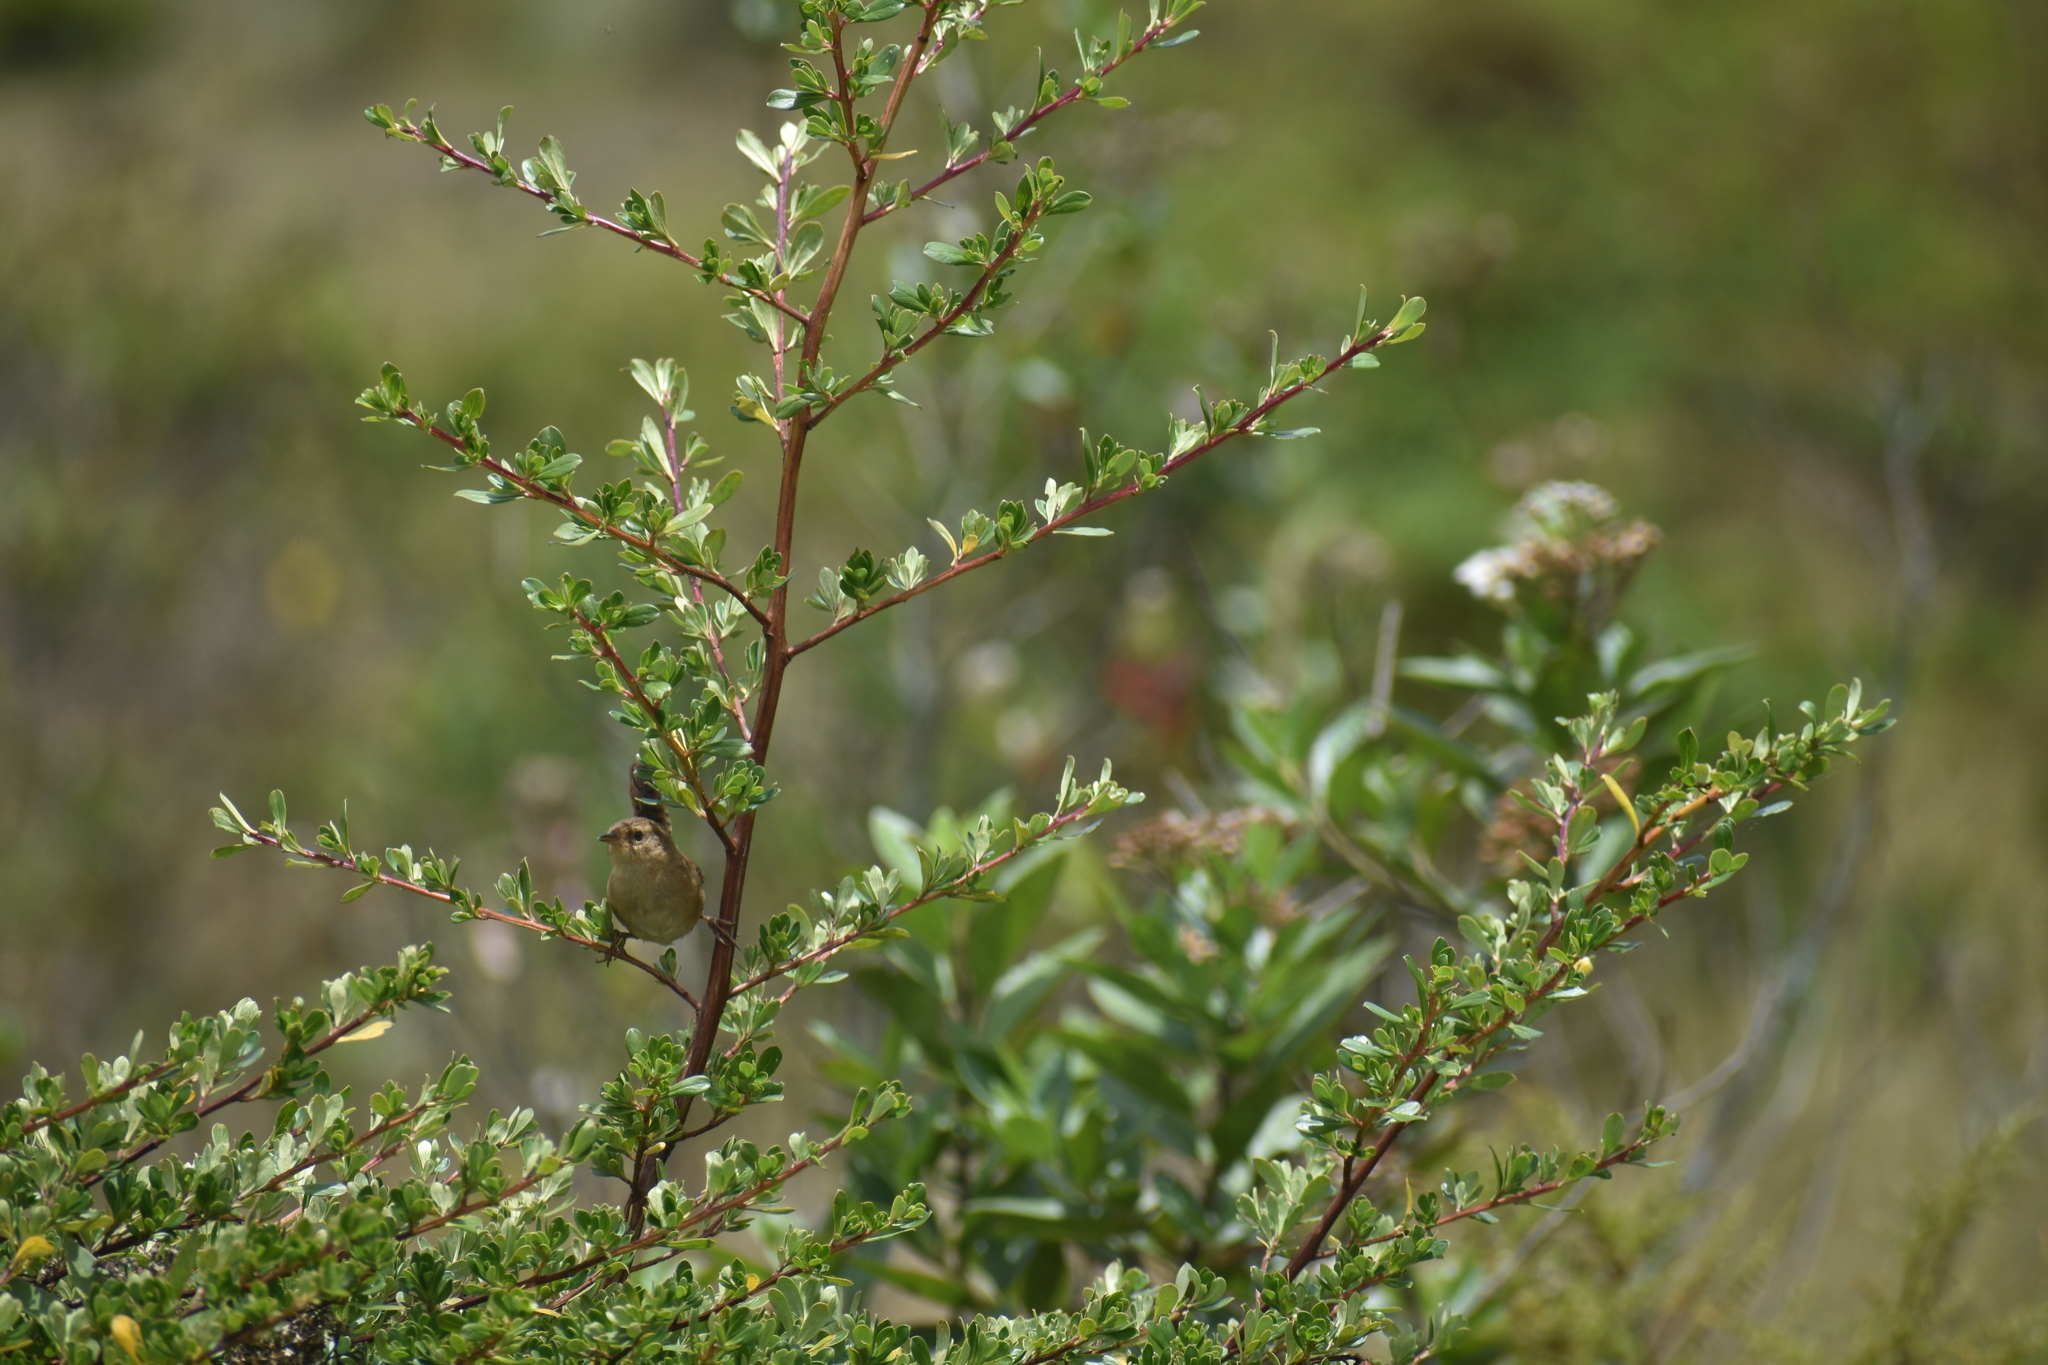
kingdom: Animalia
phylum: Chordata
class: Aves
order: Passeriformes
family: Troglodytidae
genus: Troglodytes
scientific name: Troglodytes solstitialis
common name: Mountain wren
